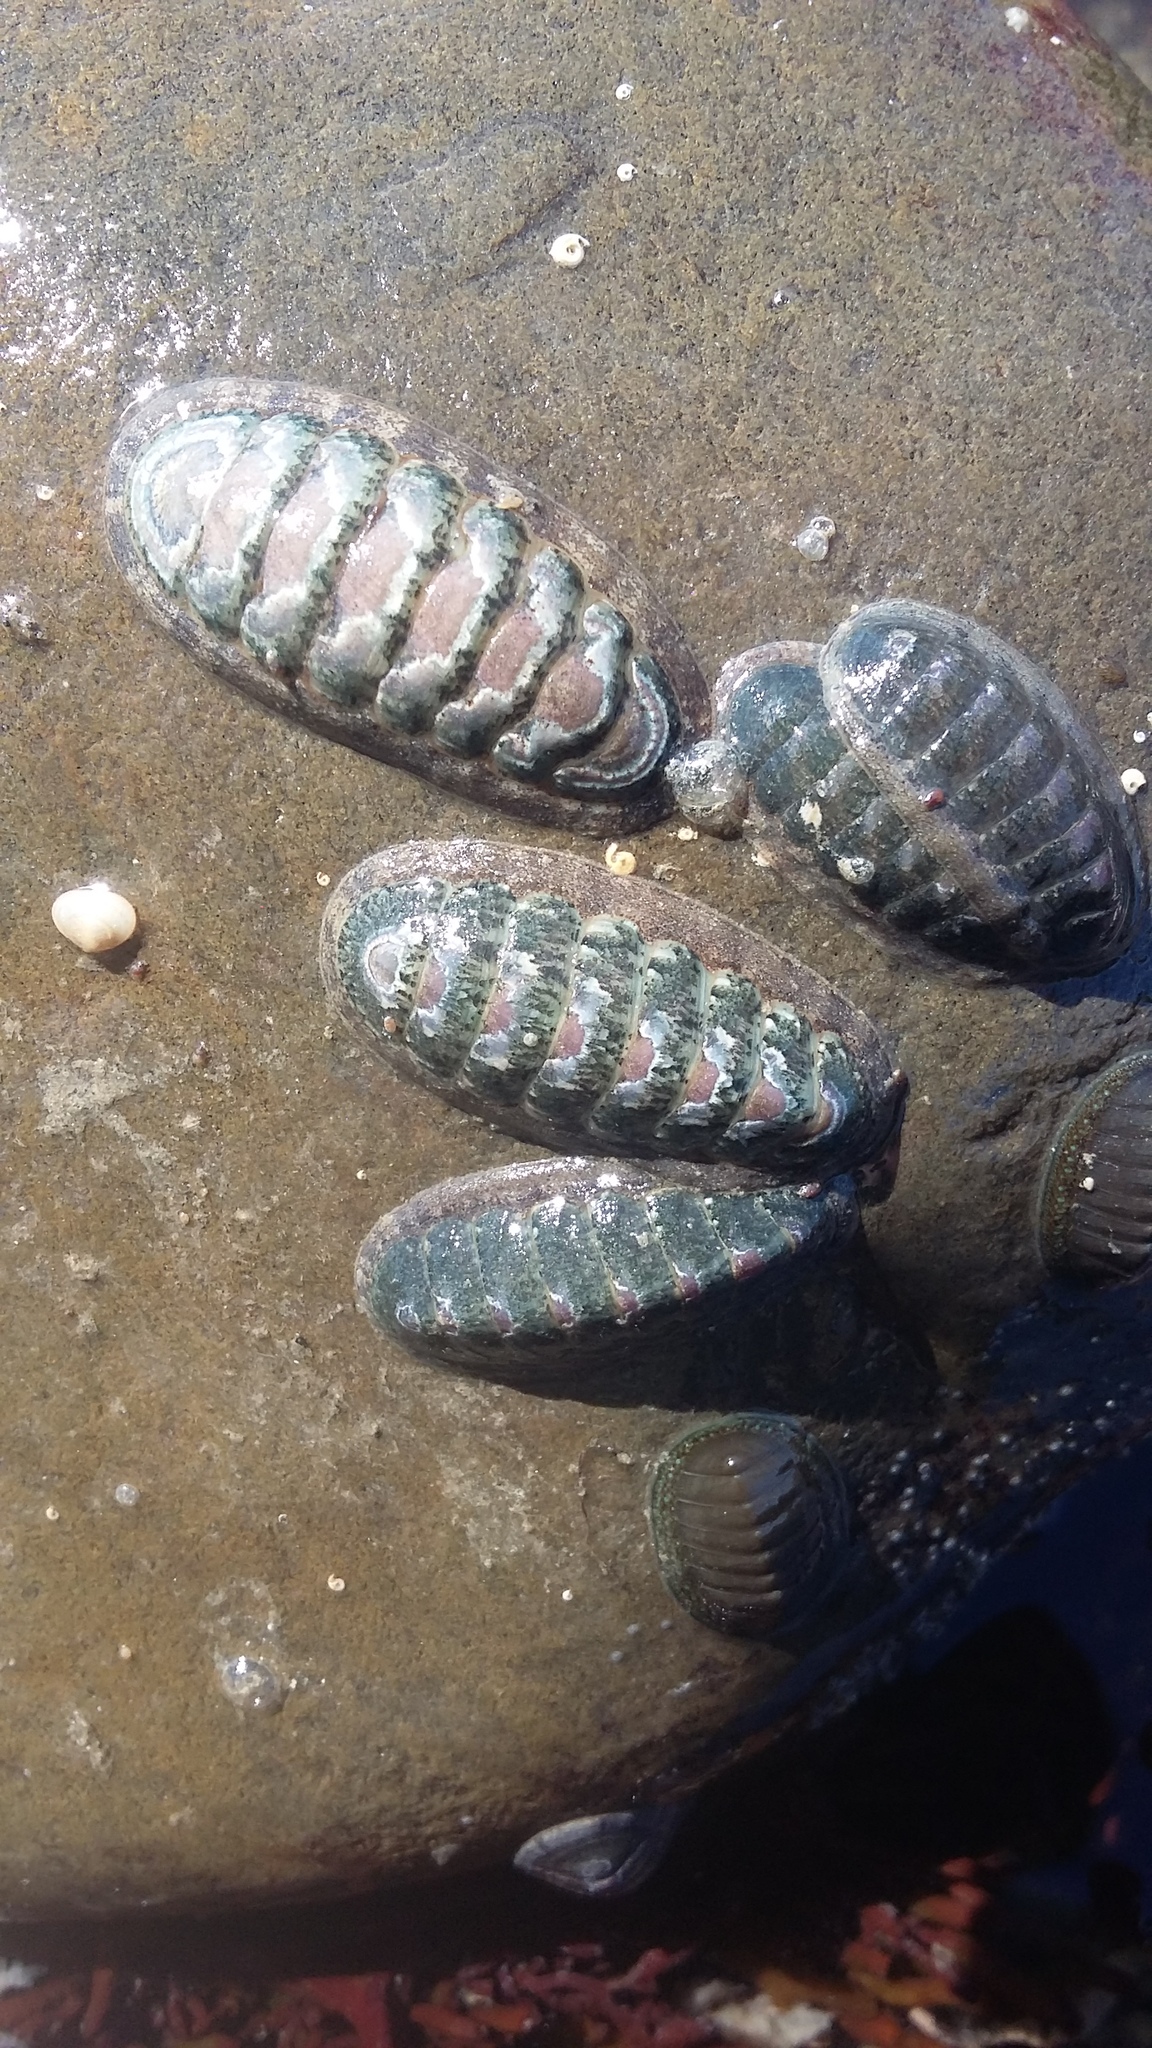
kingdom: Animalia
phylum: Mollusca
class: Polyplacophora
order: Chitonida
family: Ischnochitonidae
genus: Ischnochiton
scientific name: Ischnochiton maorianus
